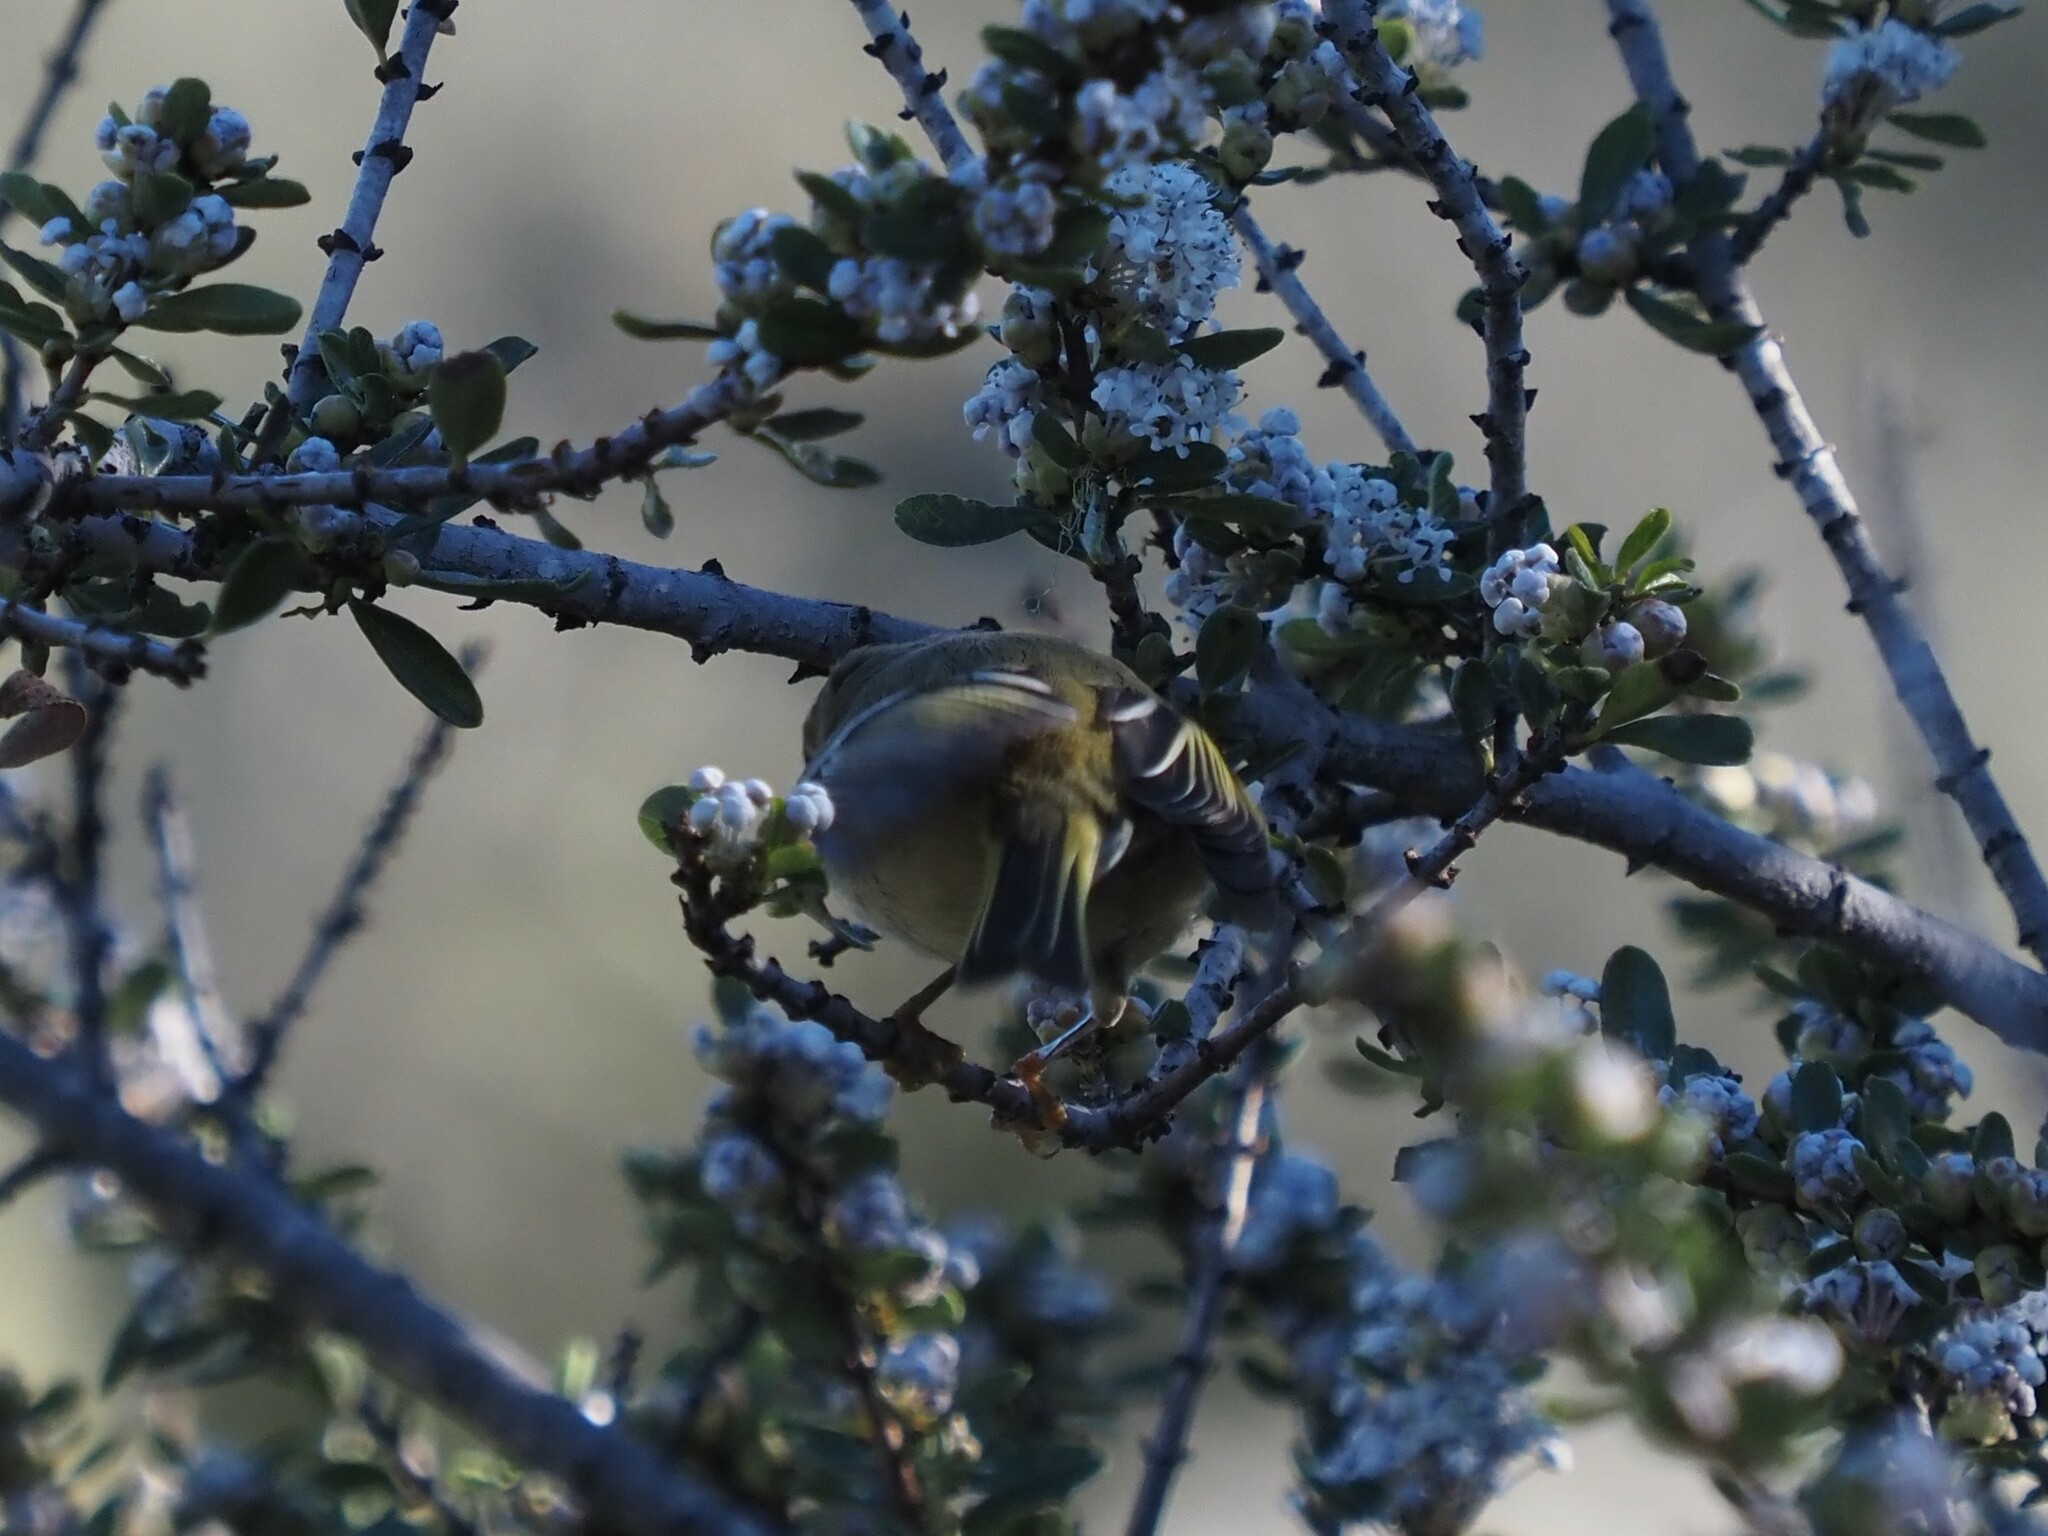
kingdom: Animalia
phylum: Chordata
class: Aves
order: Passeriformes
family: Regulidae
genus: Regulus
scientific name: Regulus calendula
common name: Ruby-crowned kinglet
